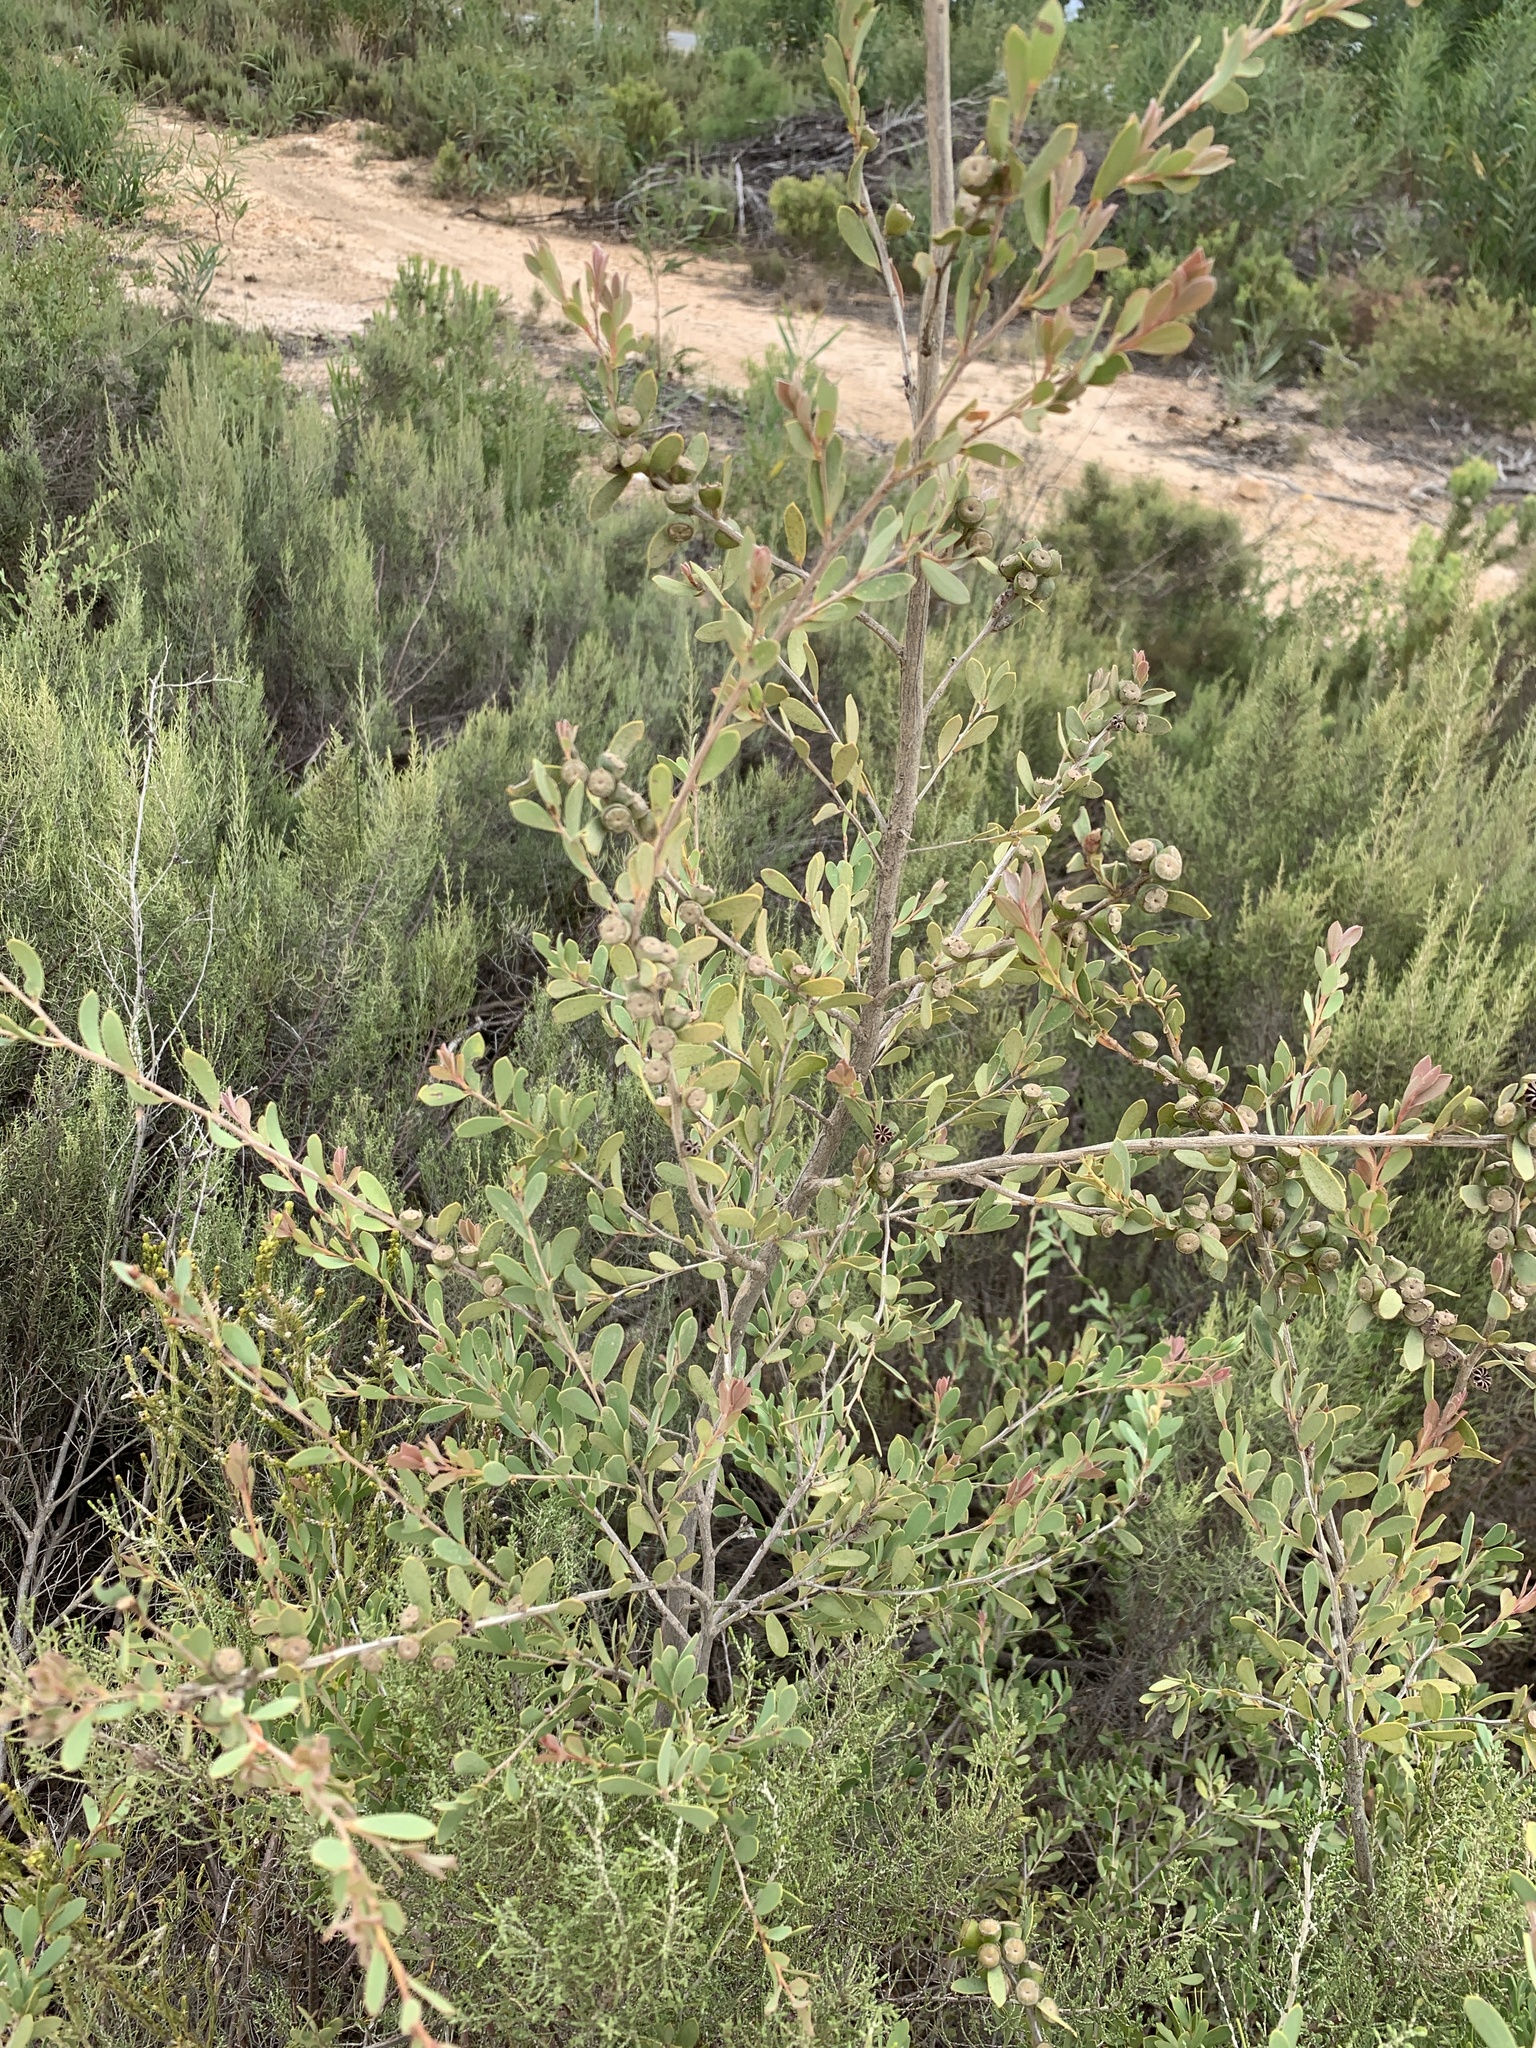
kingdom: Plantae
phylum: Tracheophyta
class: Magnoliopsida
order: Myrtales
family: Myrtaceae
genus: Leptospermum
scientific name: Leptospermum laevigatum
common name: Australian teatree
